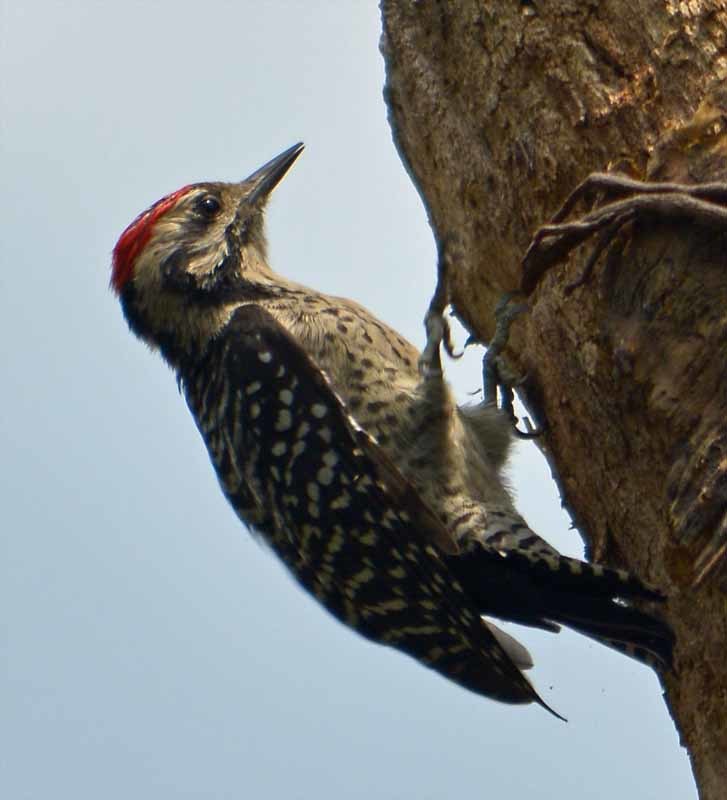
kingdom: Animalia
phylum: Chordata
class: Aves
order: Piciformes
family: Picidae
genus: Dryobates
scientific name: Dryobates scalaris
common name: Ladder-backed woodpecker
